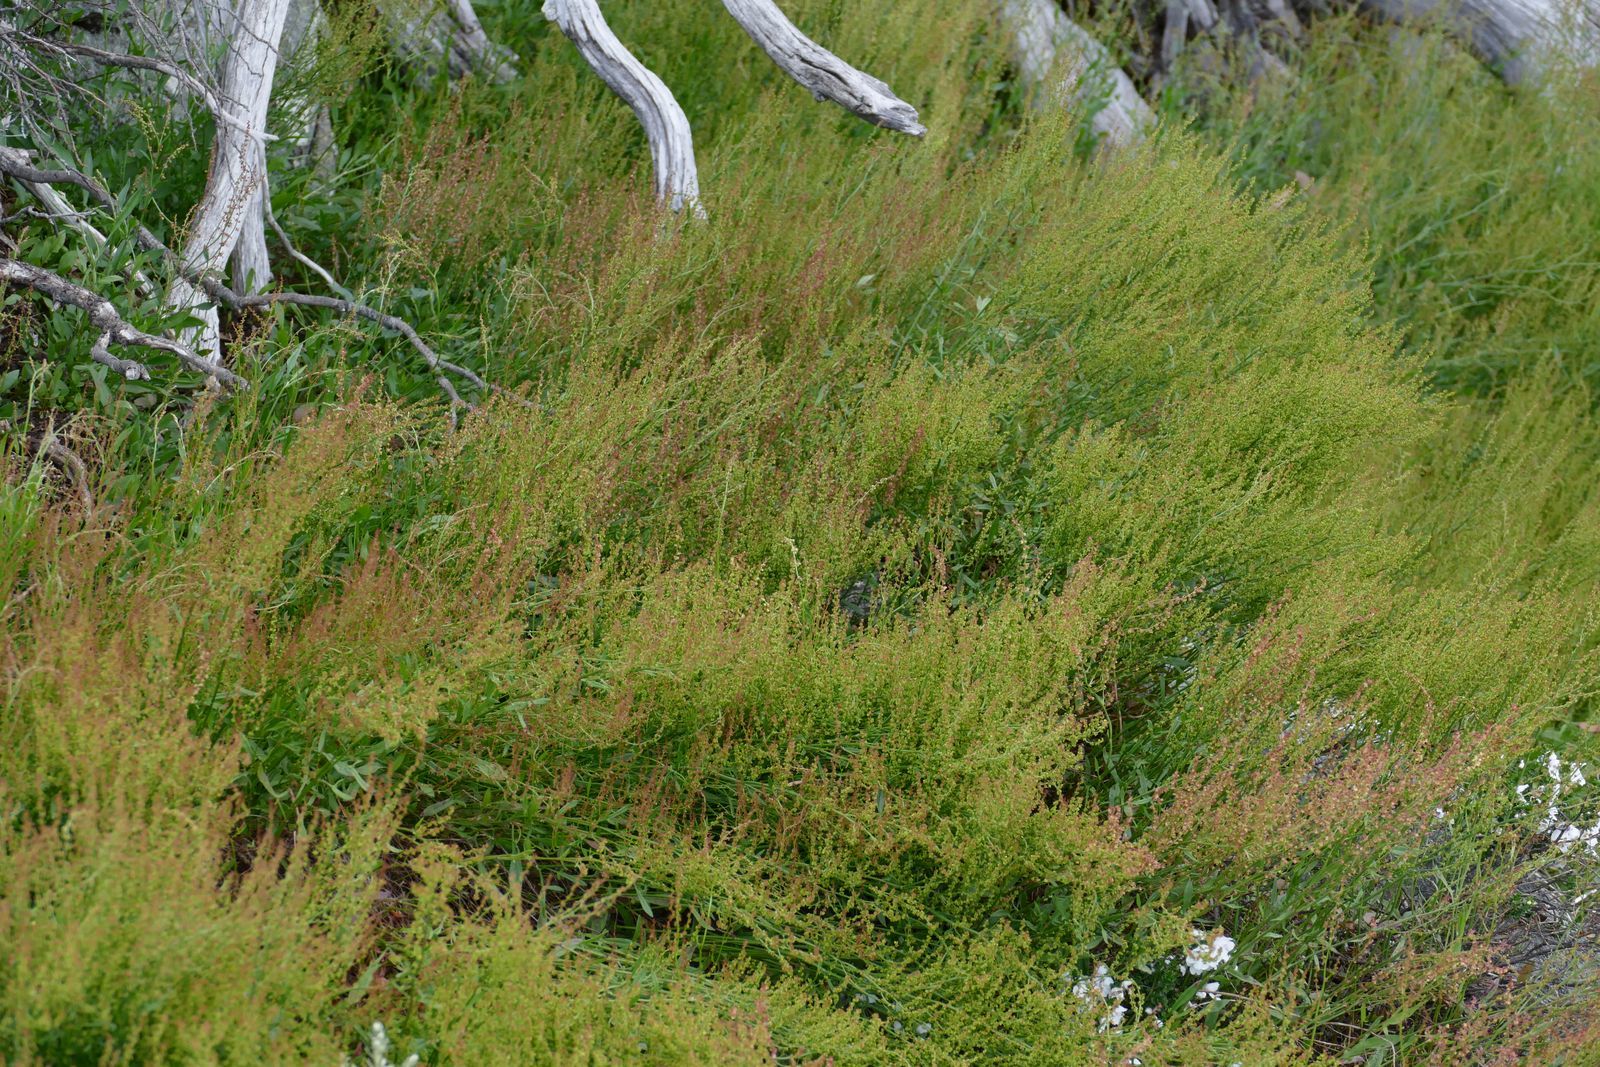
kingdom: Plantae
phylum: Tracheophyta
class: Magnoliopsida
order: Caryophyllales
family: Polygonaceae
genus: Rumex
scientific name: Rumex acetosella
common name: Common sheep sorrel
